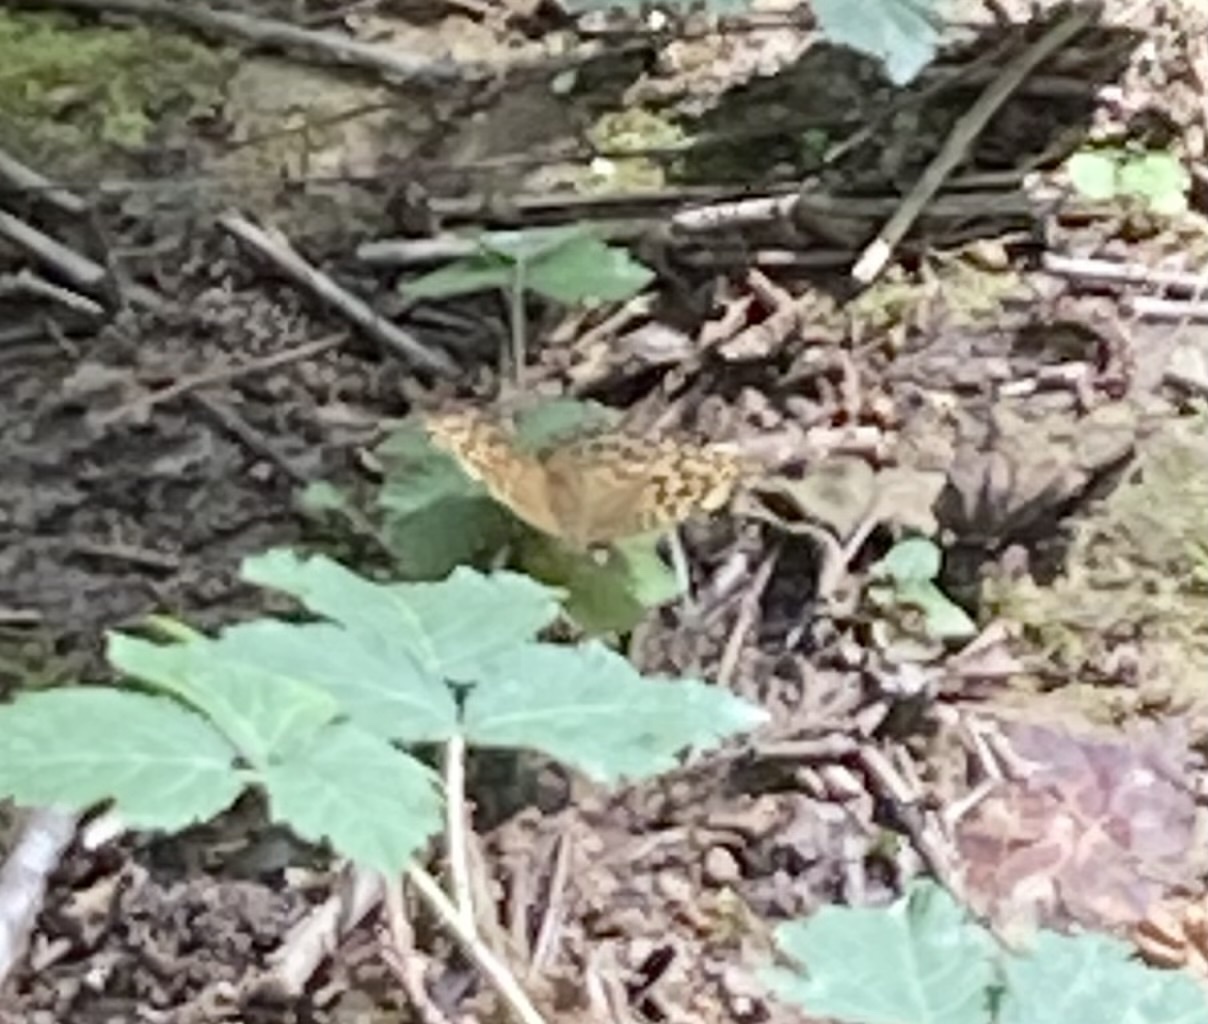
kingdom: Animalia
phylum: Arthropoda
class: Insecta
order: Lepidoptera
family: Nymphalidae
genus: Argynnis
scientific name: Argynnis paphia
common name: Silver-washed fritillary
